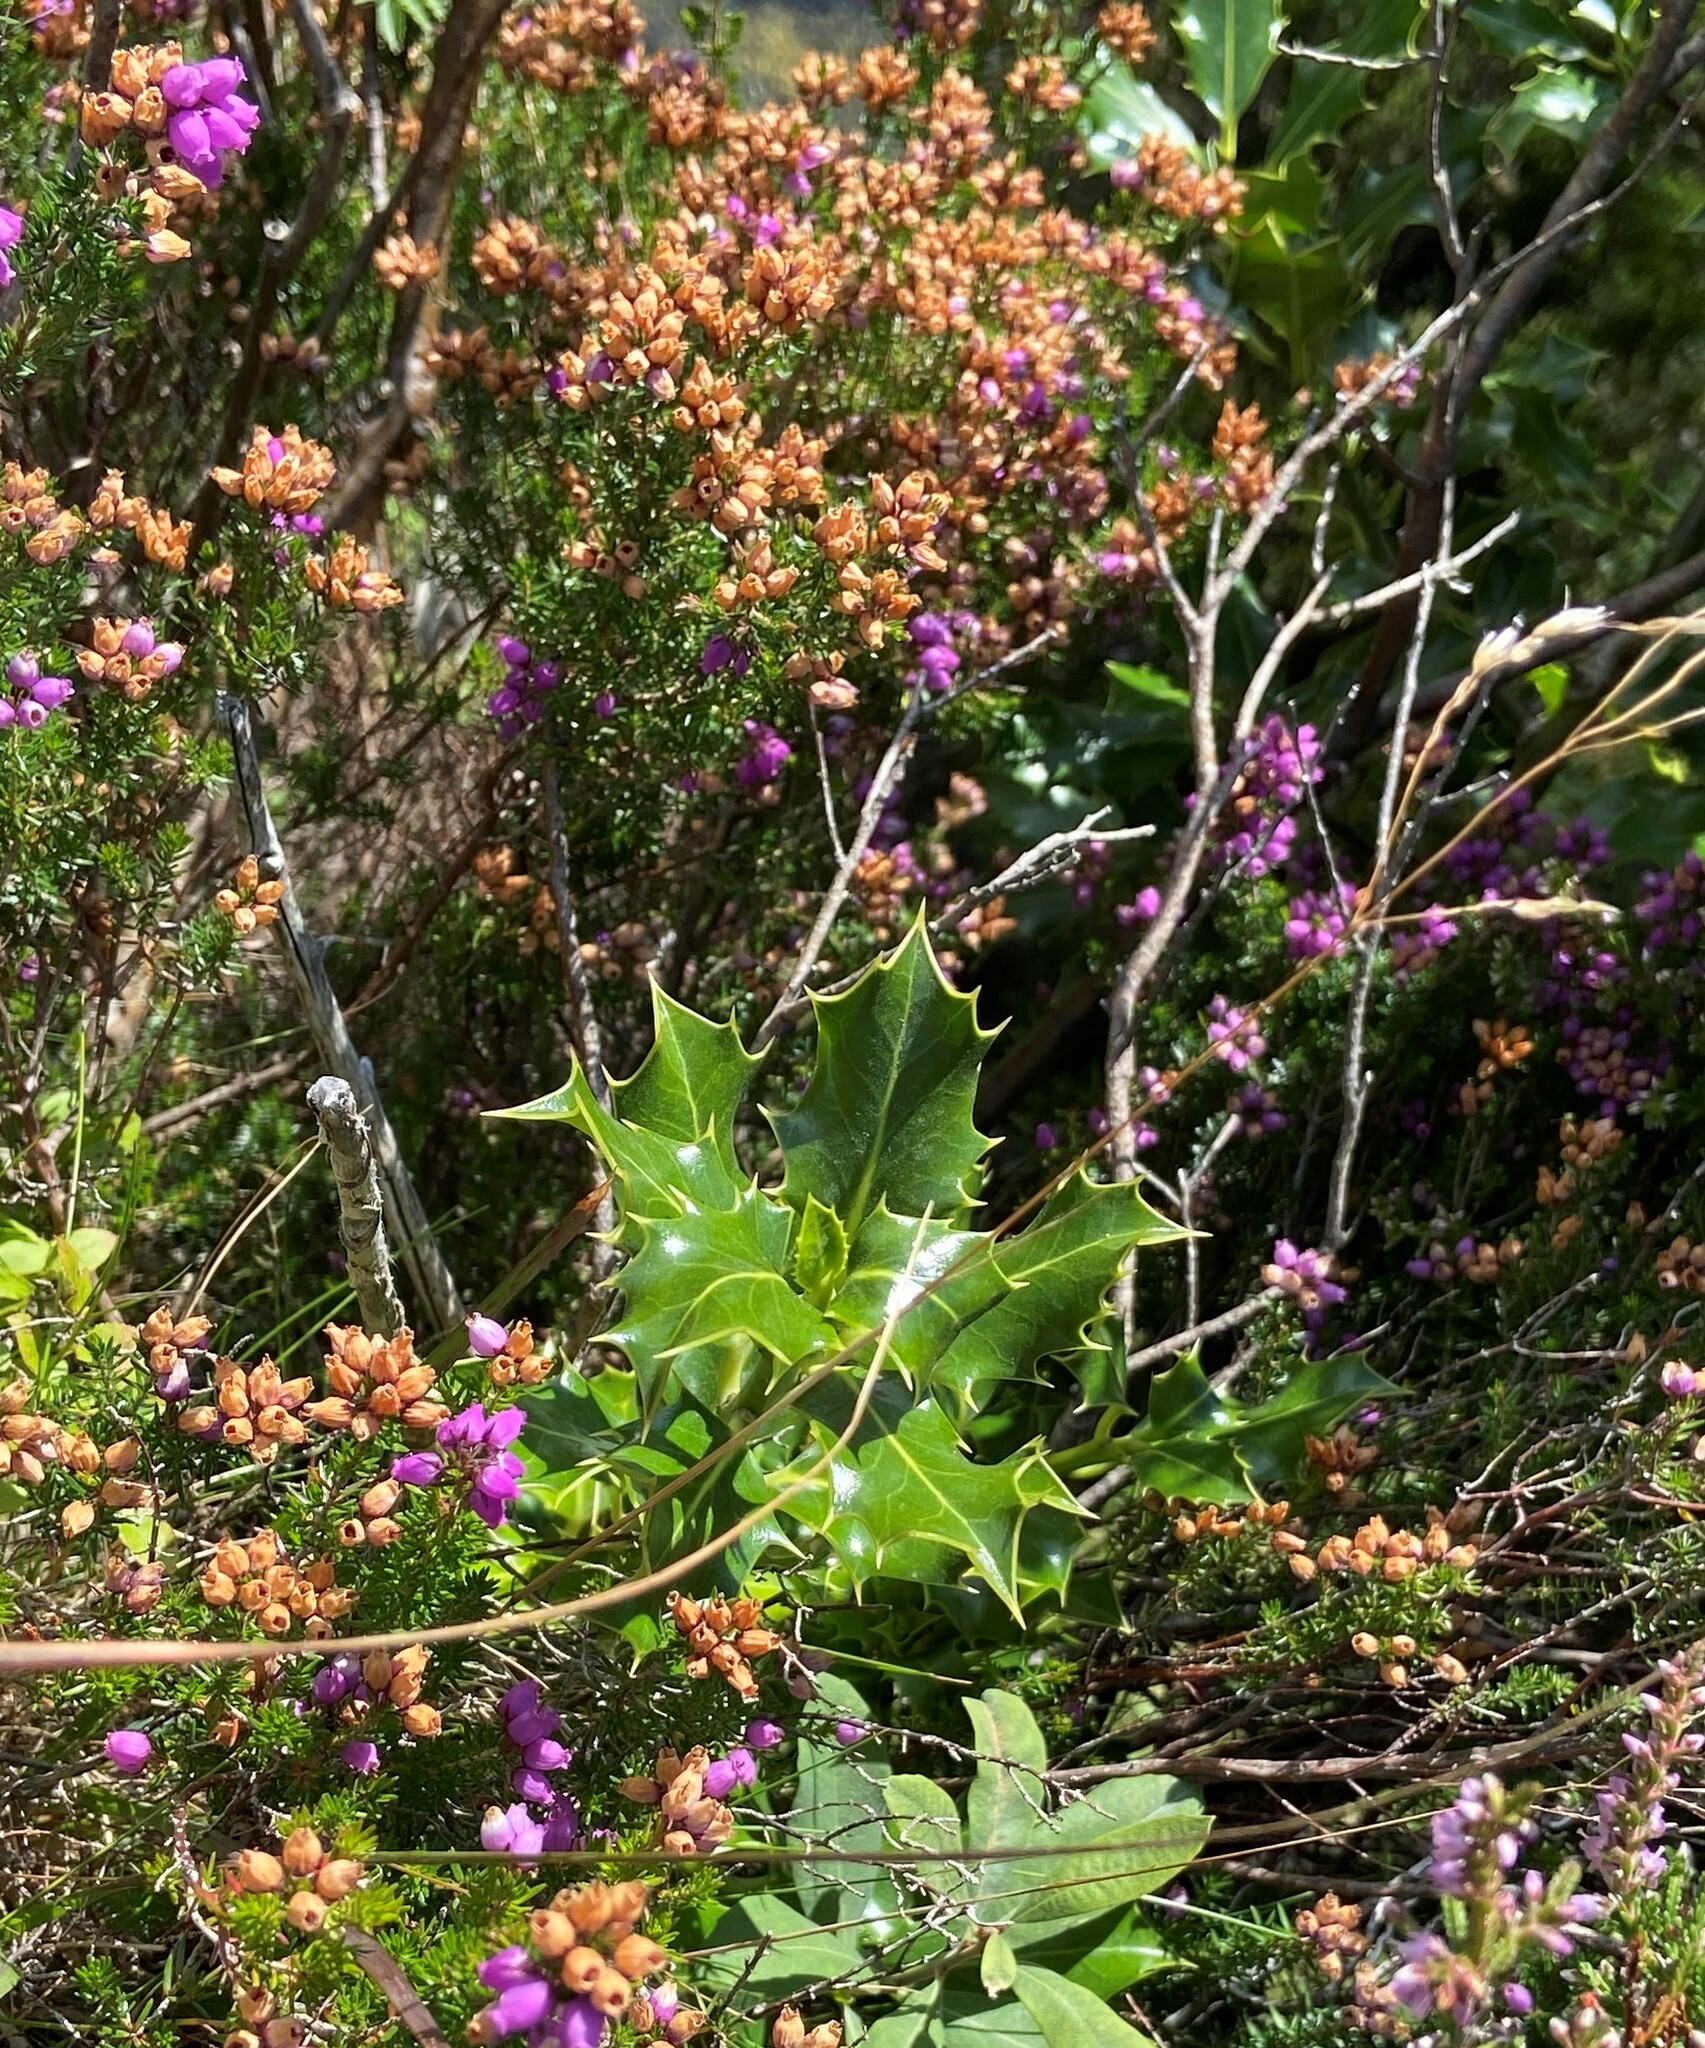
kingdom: Plantae
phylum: Tracheophyta
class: Magnoliopsida
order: Aquifoliales
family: Aquifoliaceae
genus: Ilex
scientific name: Ilex aquifolium
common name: English holly
